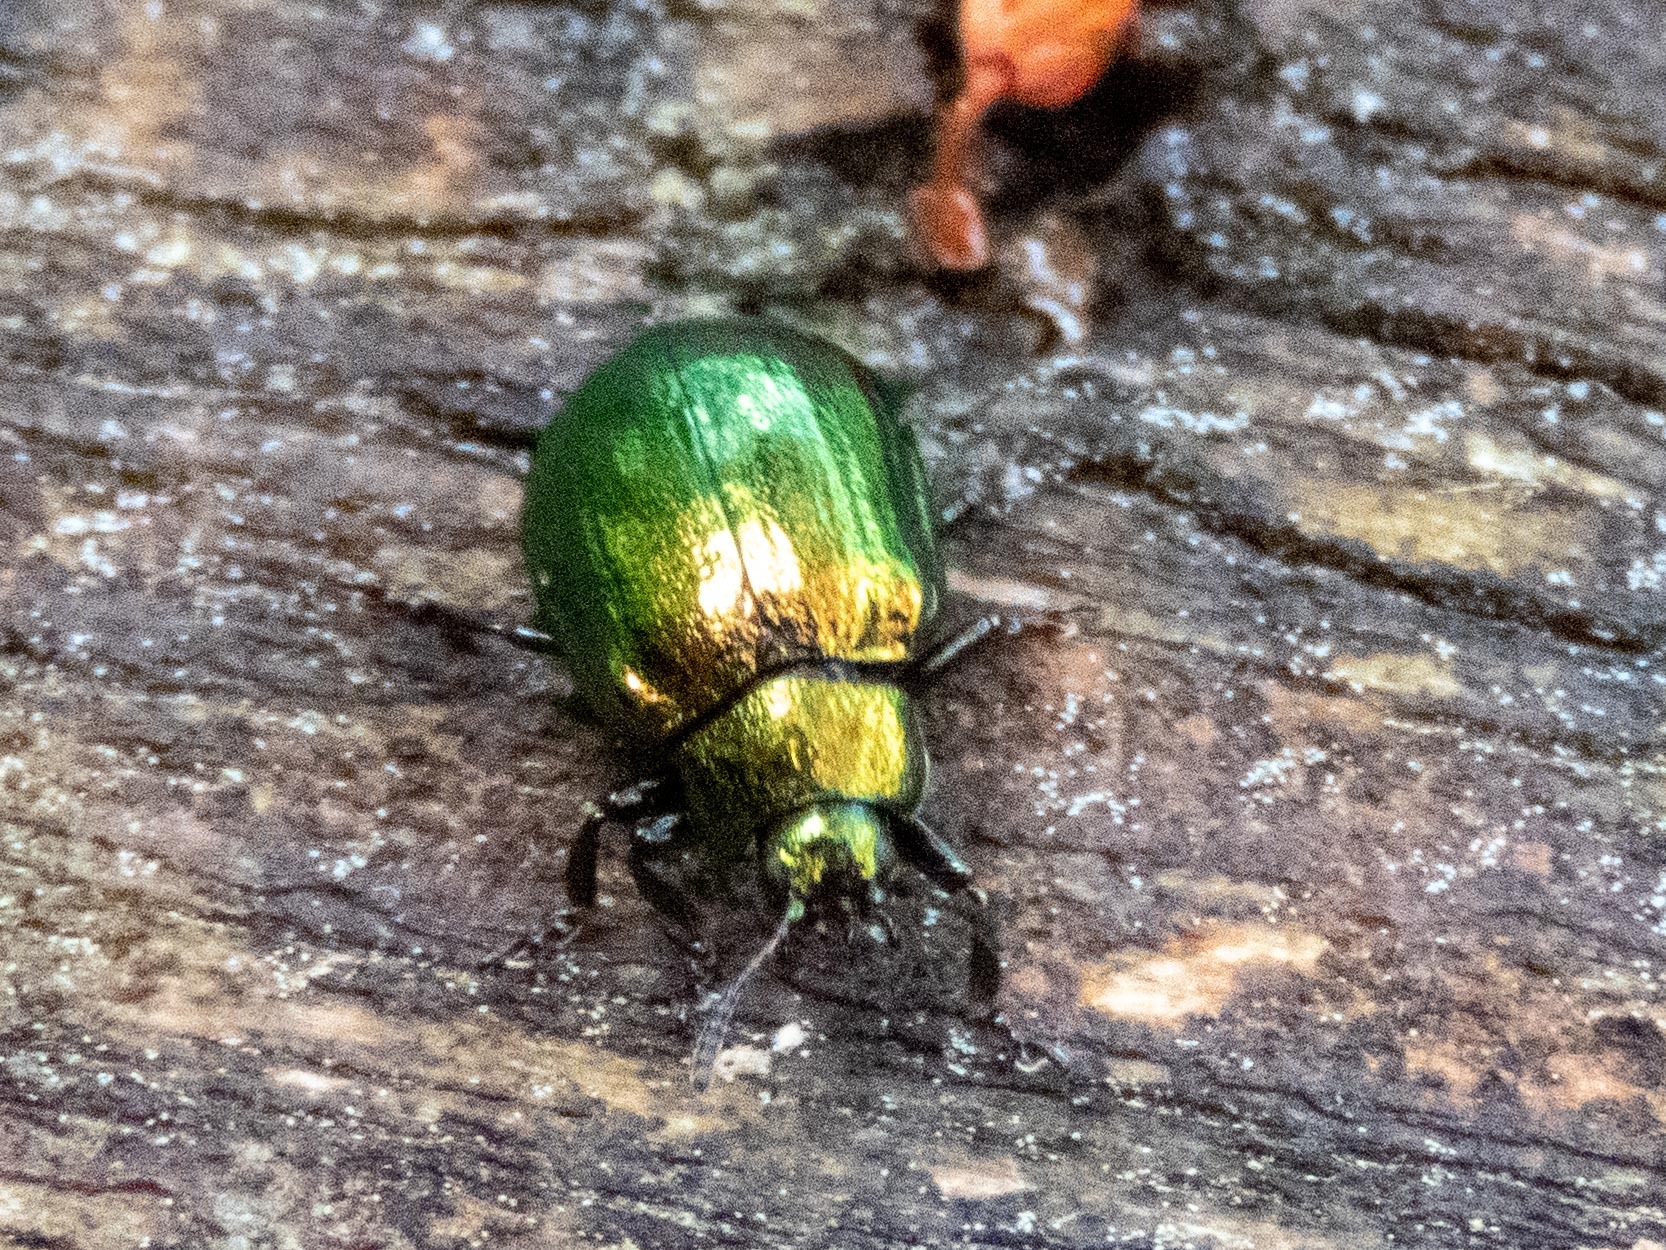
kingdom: Animalia
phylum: Arthropoda
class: Insecta
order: Coleoptera
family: Chrysomelidae
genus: Plagiosterna
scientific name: Plagiosterna aenea
